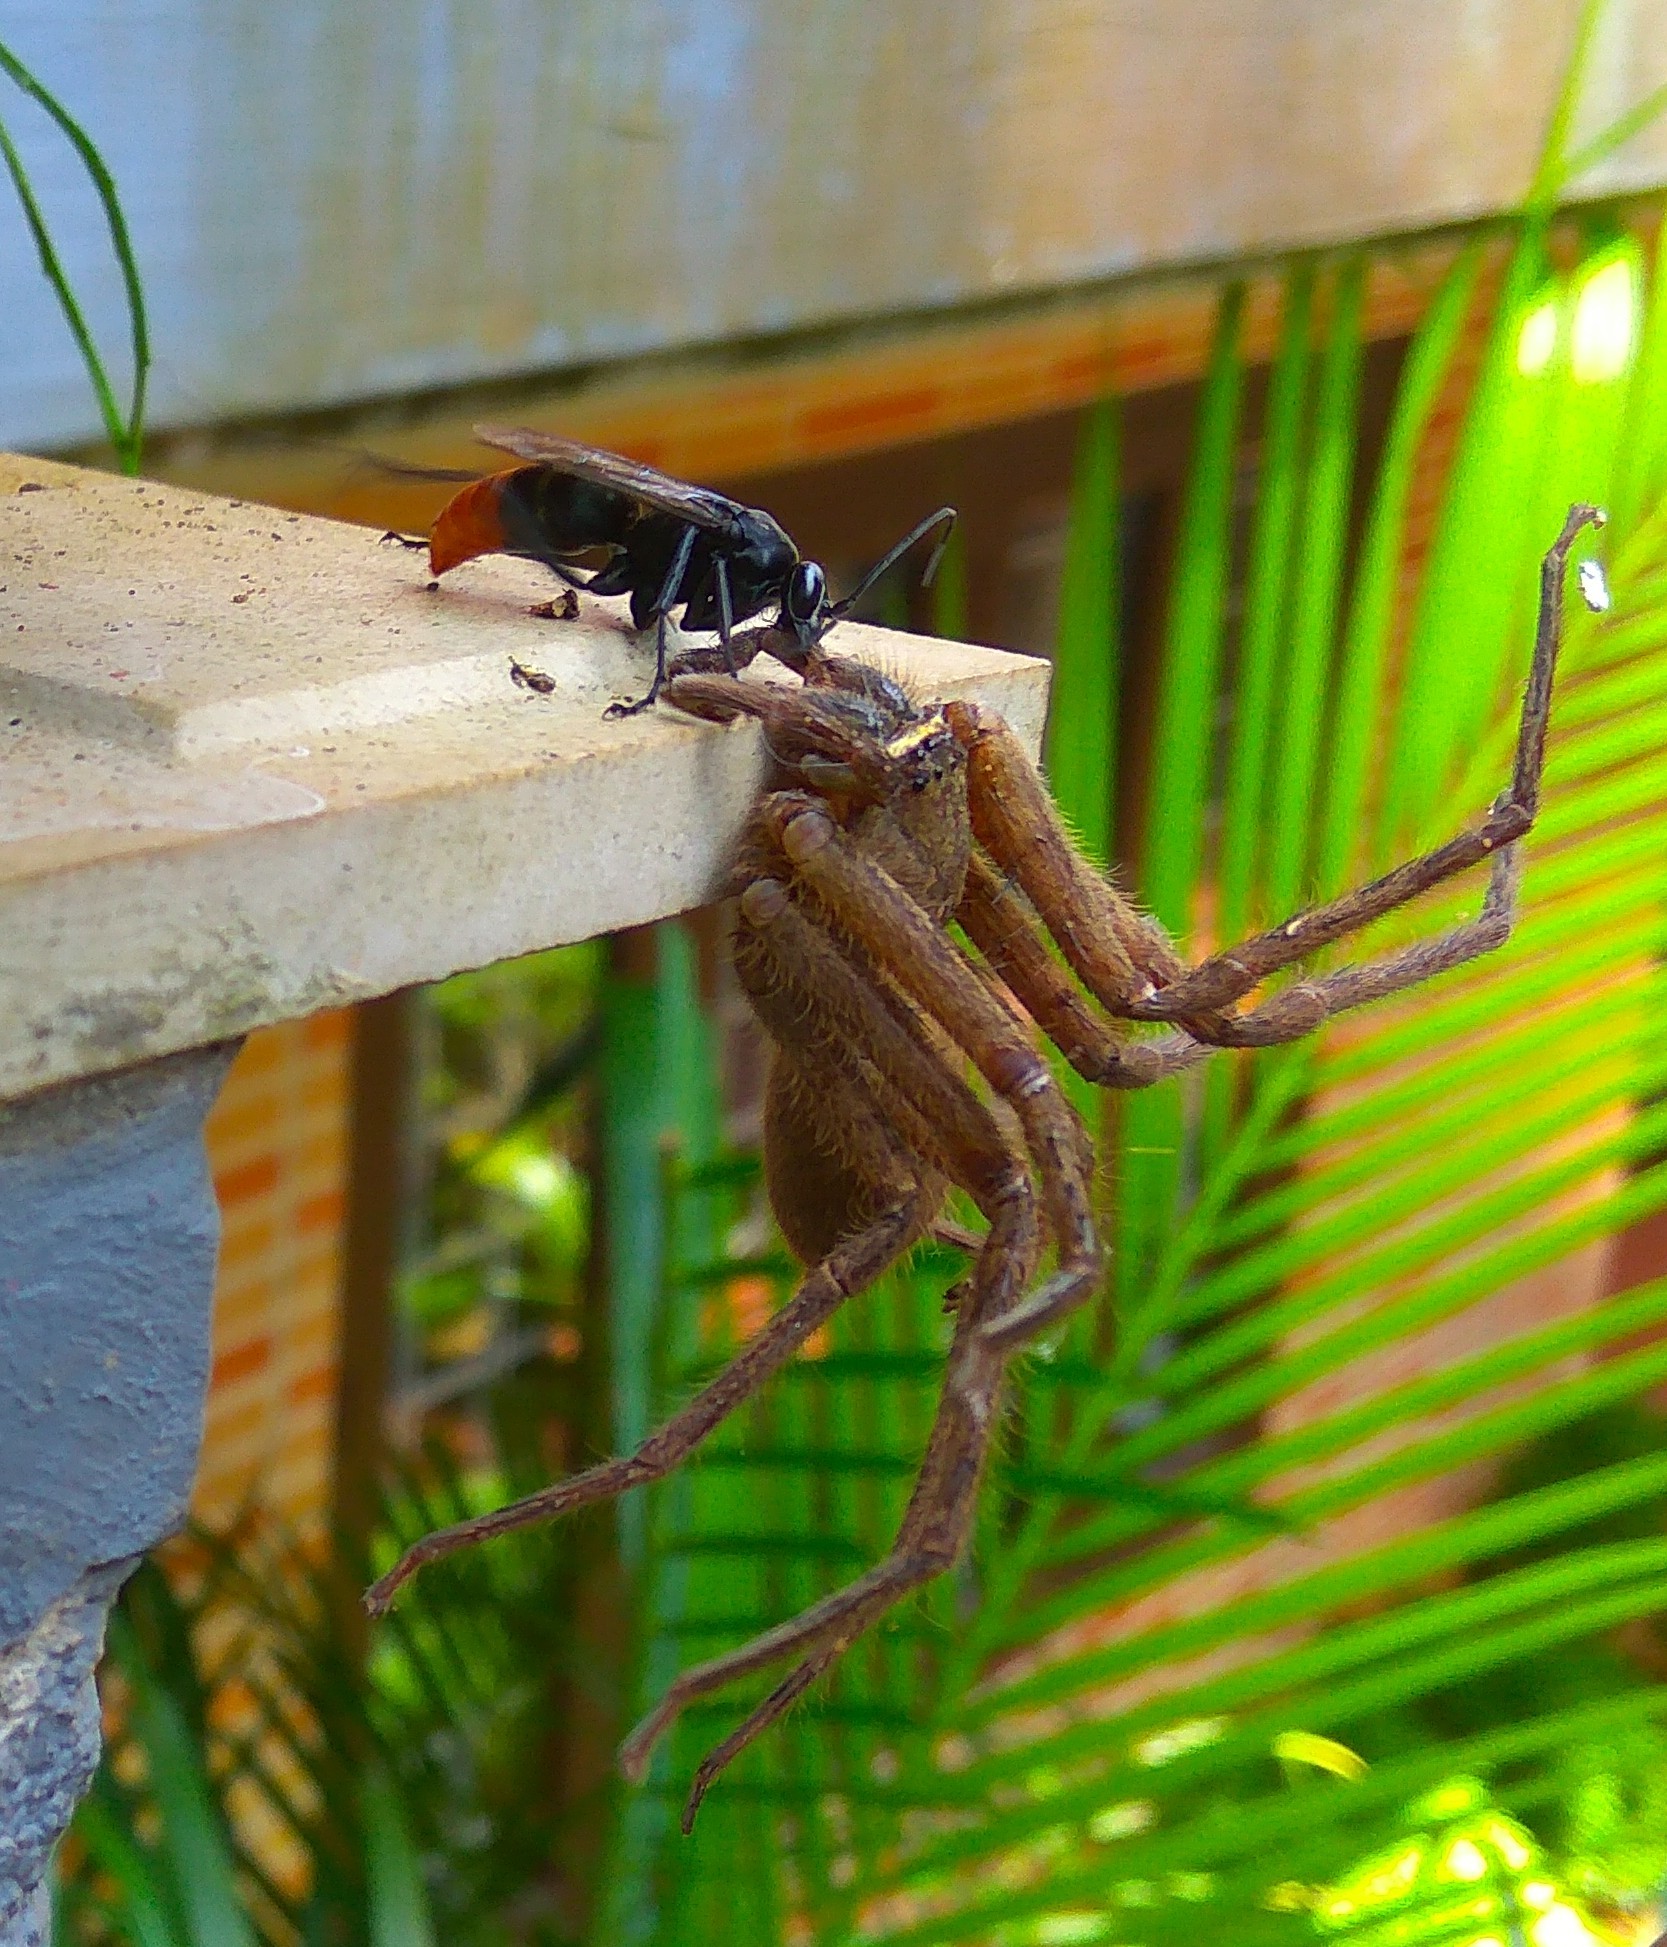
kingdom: Animalia
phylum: Arthropoda
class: Insecta
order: Hymenoptera
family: Pompilidae
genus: Tachypompilus
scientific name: Tachypompilus analis
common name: Spider wasp
